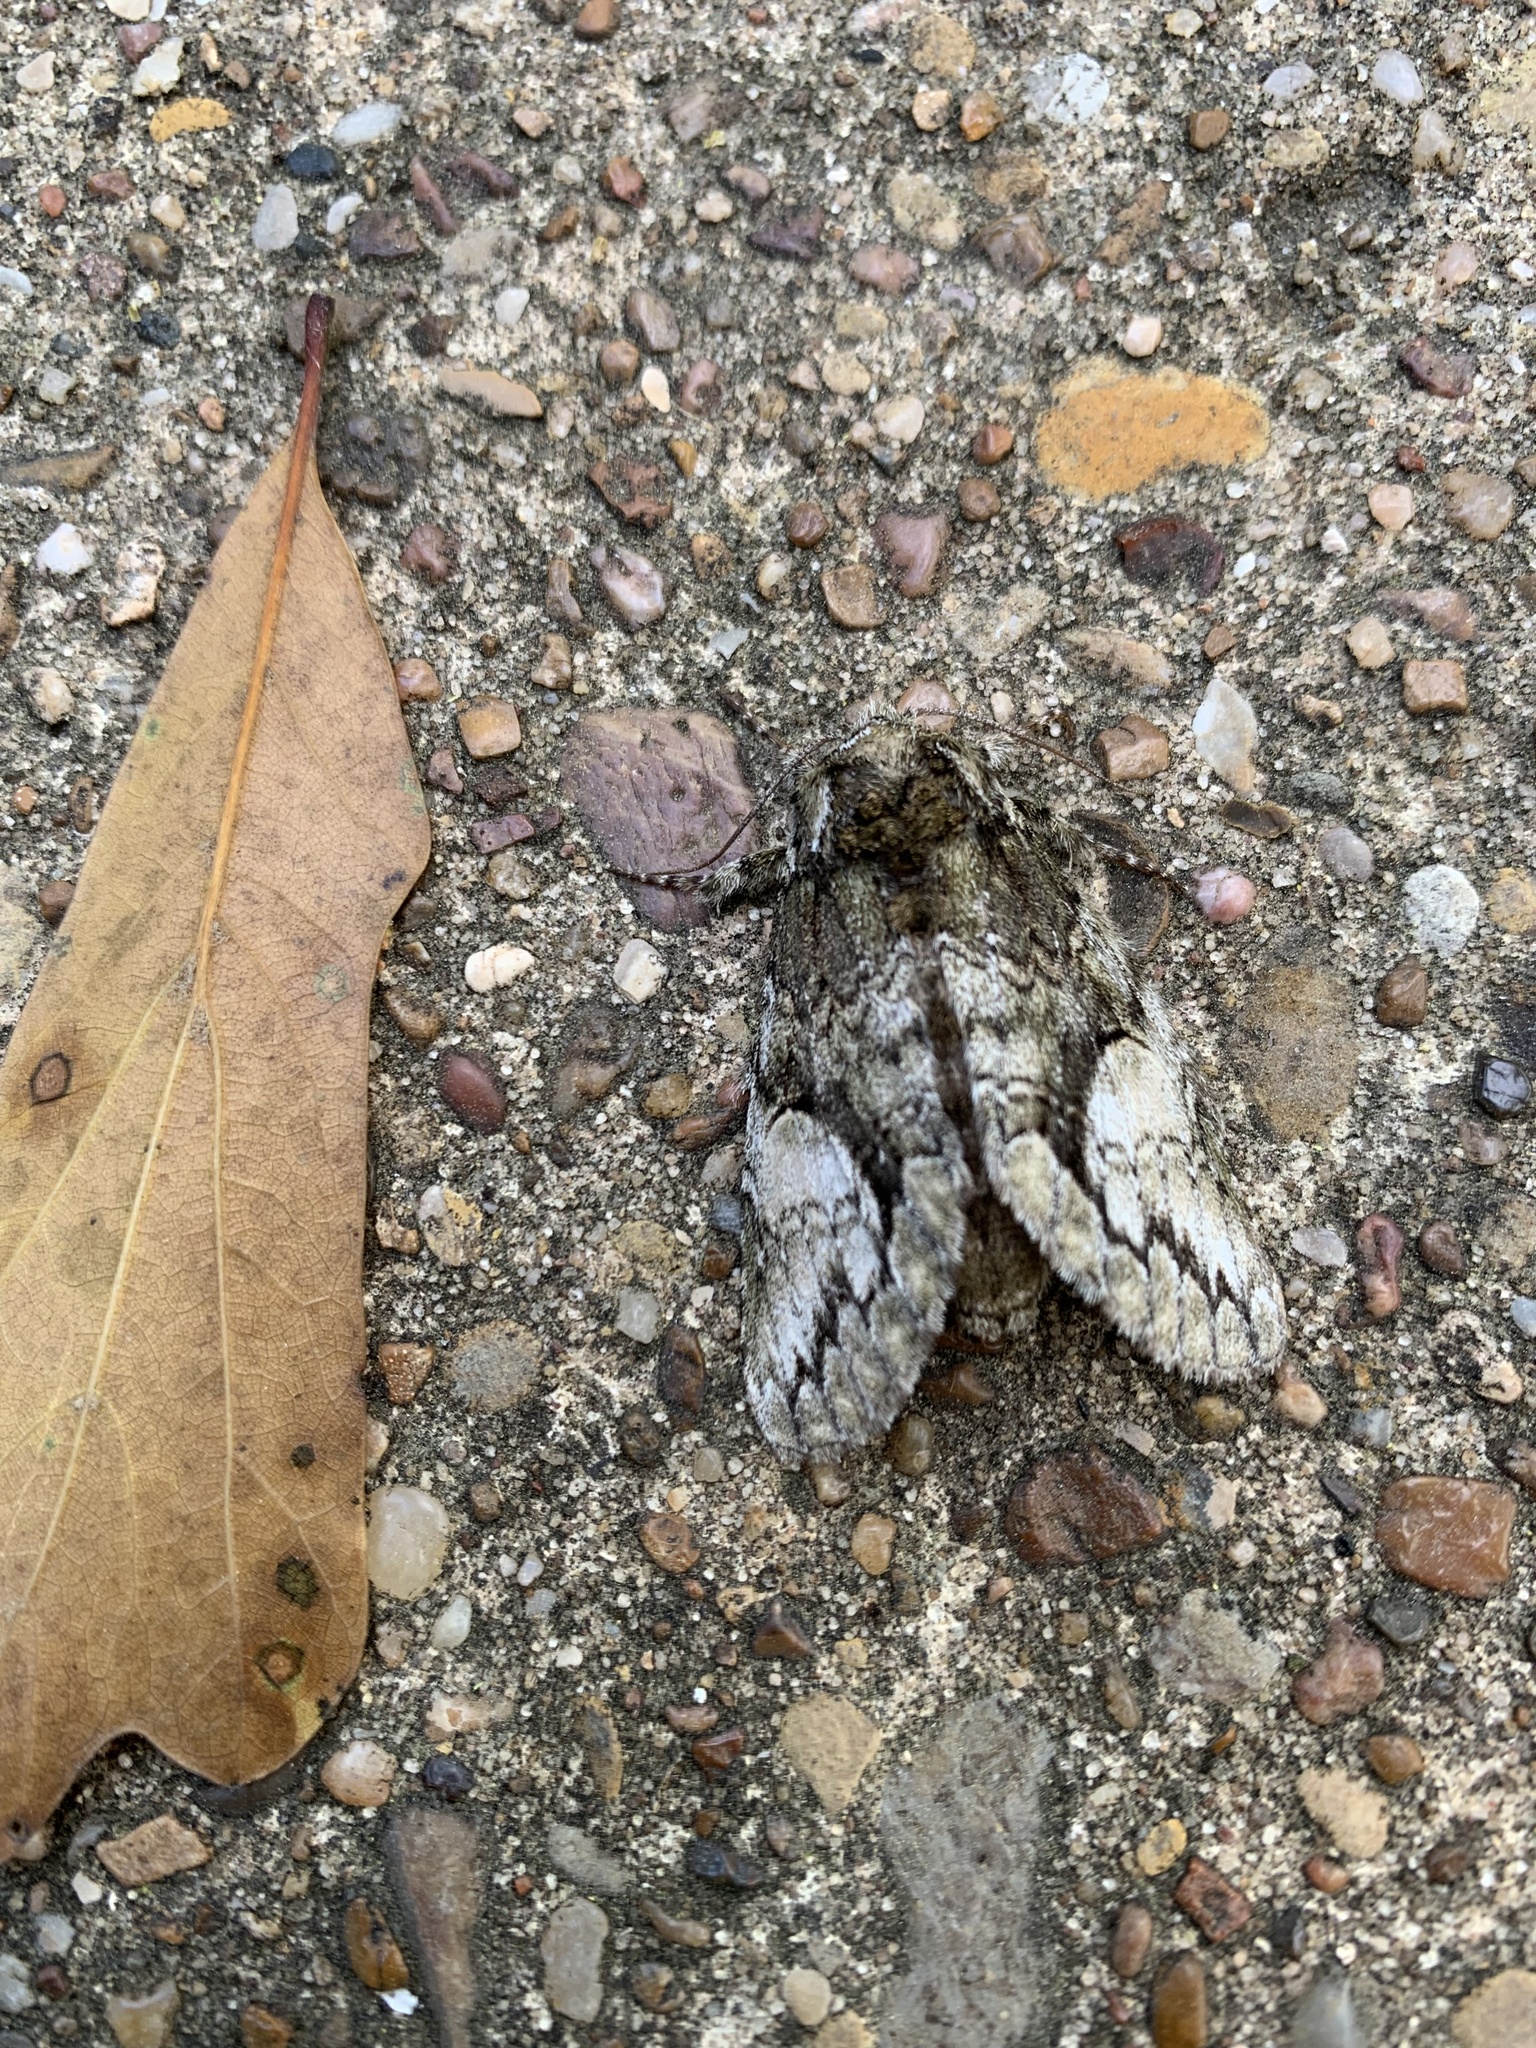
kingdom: Animalia
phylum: Arthropoda
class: Insecta
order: Lepidoptera
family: Notodontidae
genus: Heterocampa
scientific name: Heterocampa
